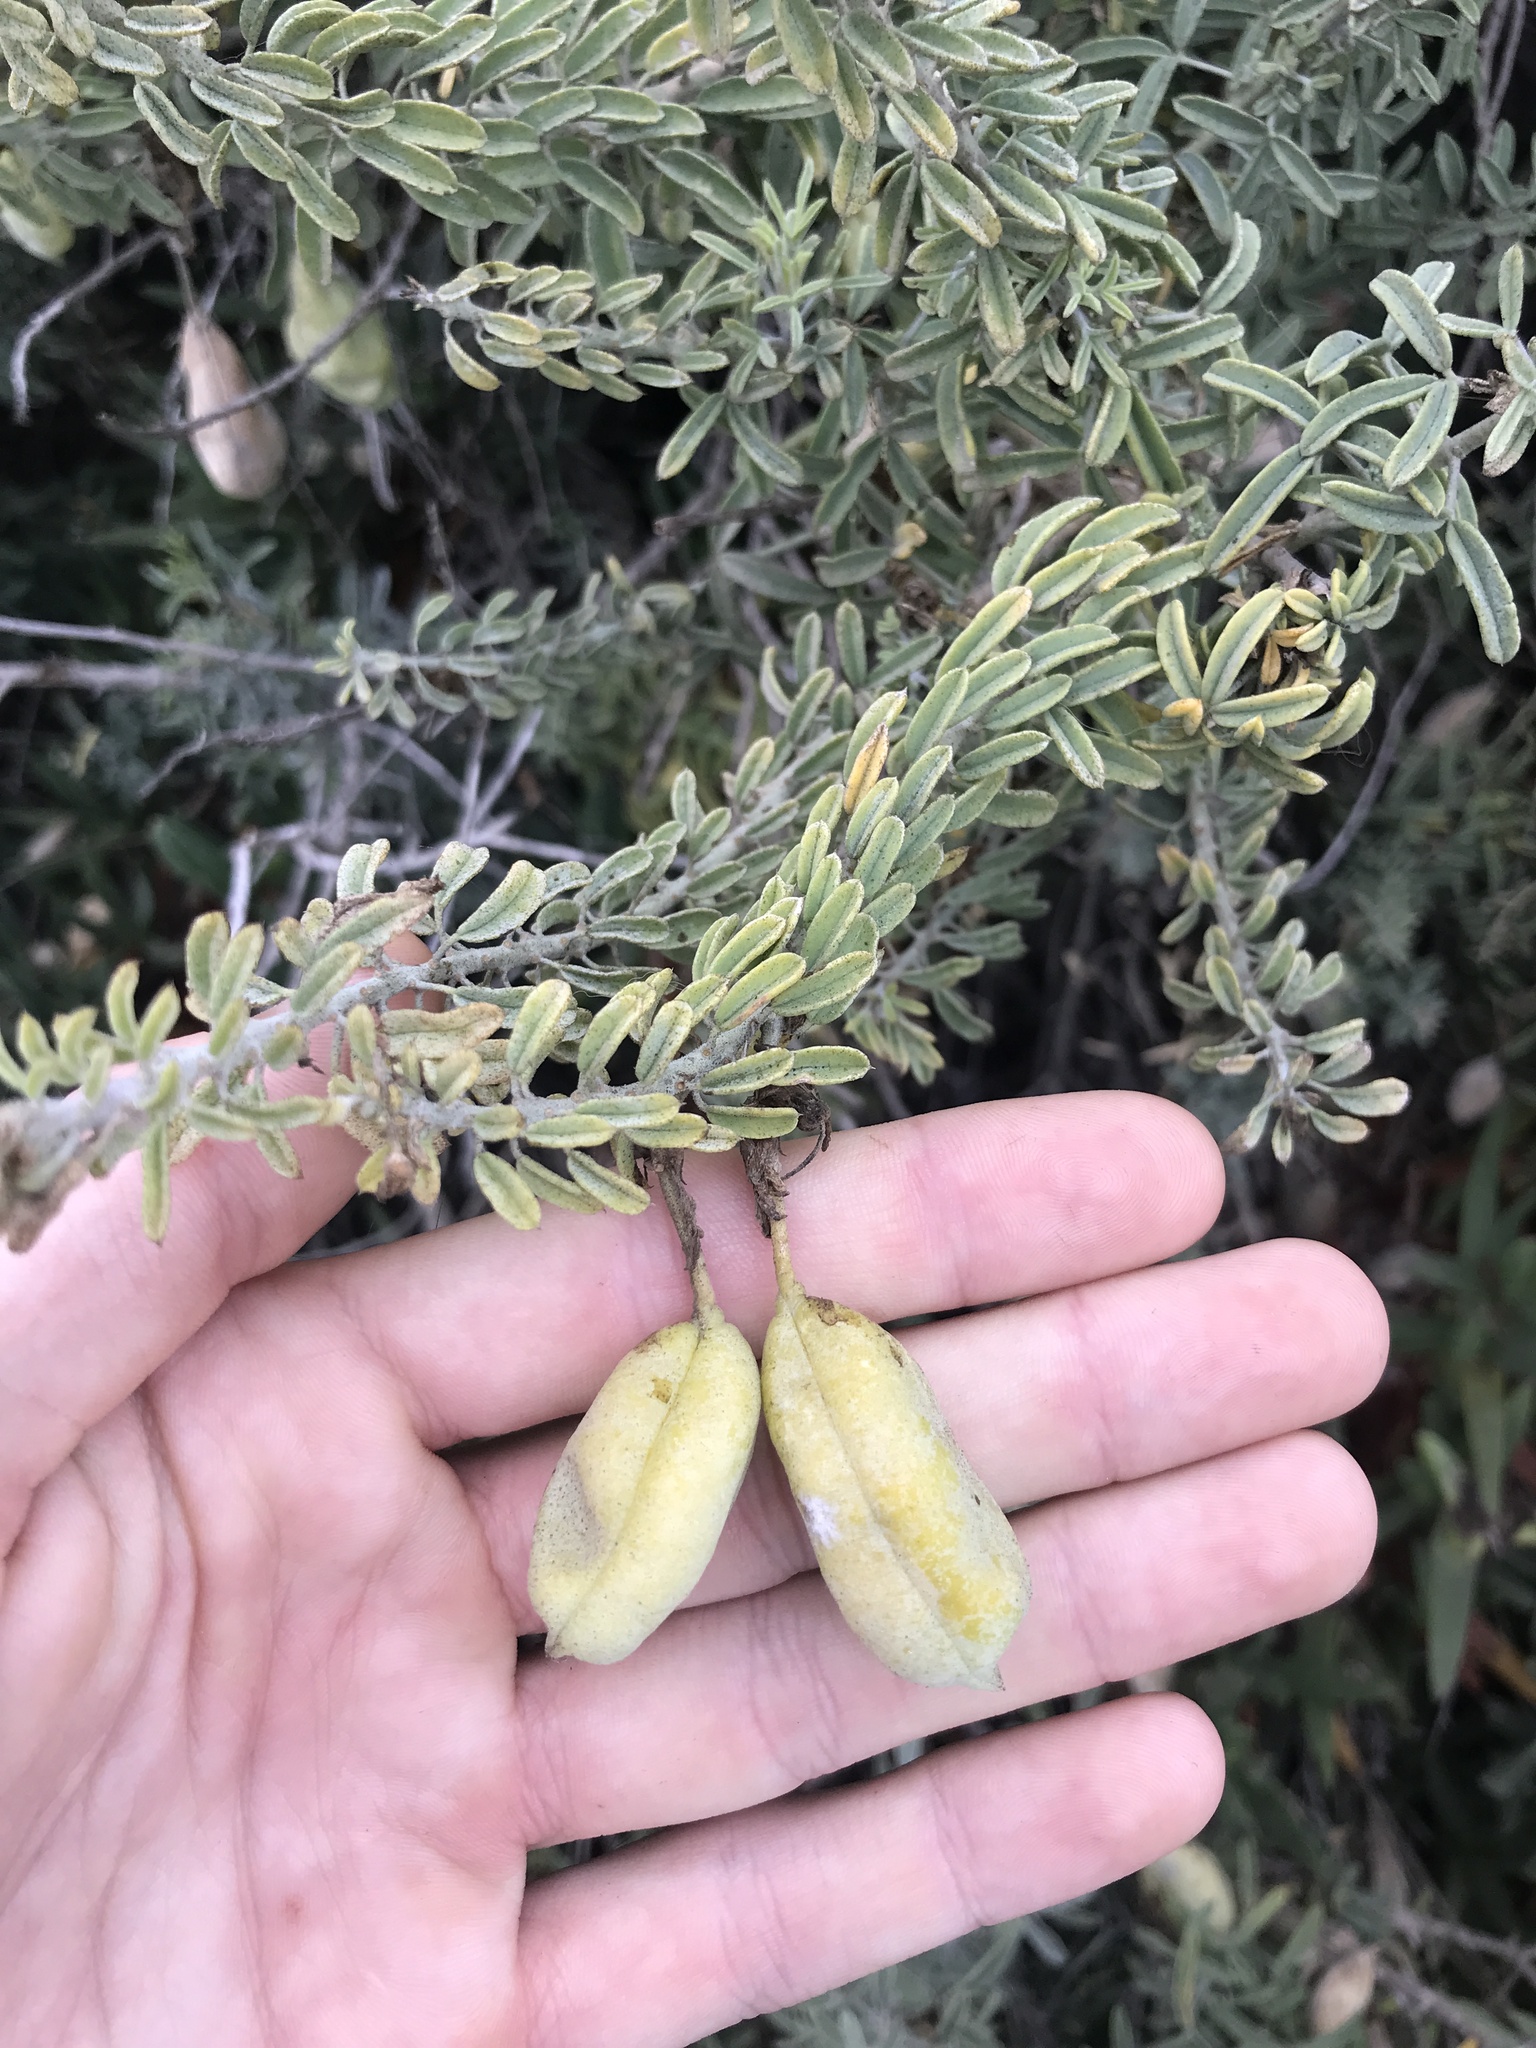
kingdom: Plantae
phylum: Tracheophyta
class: Magnoliopsida
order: Brassicales
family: Cleomaceae
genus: Cleomella
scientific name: Cleomella arborea
